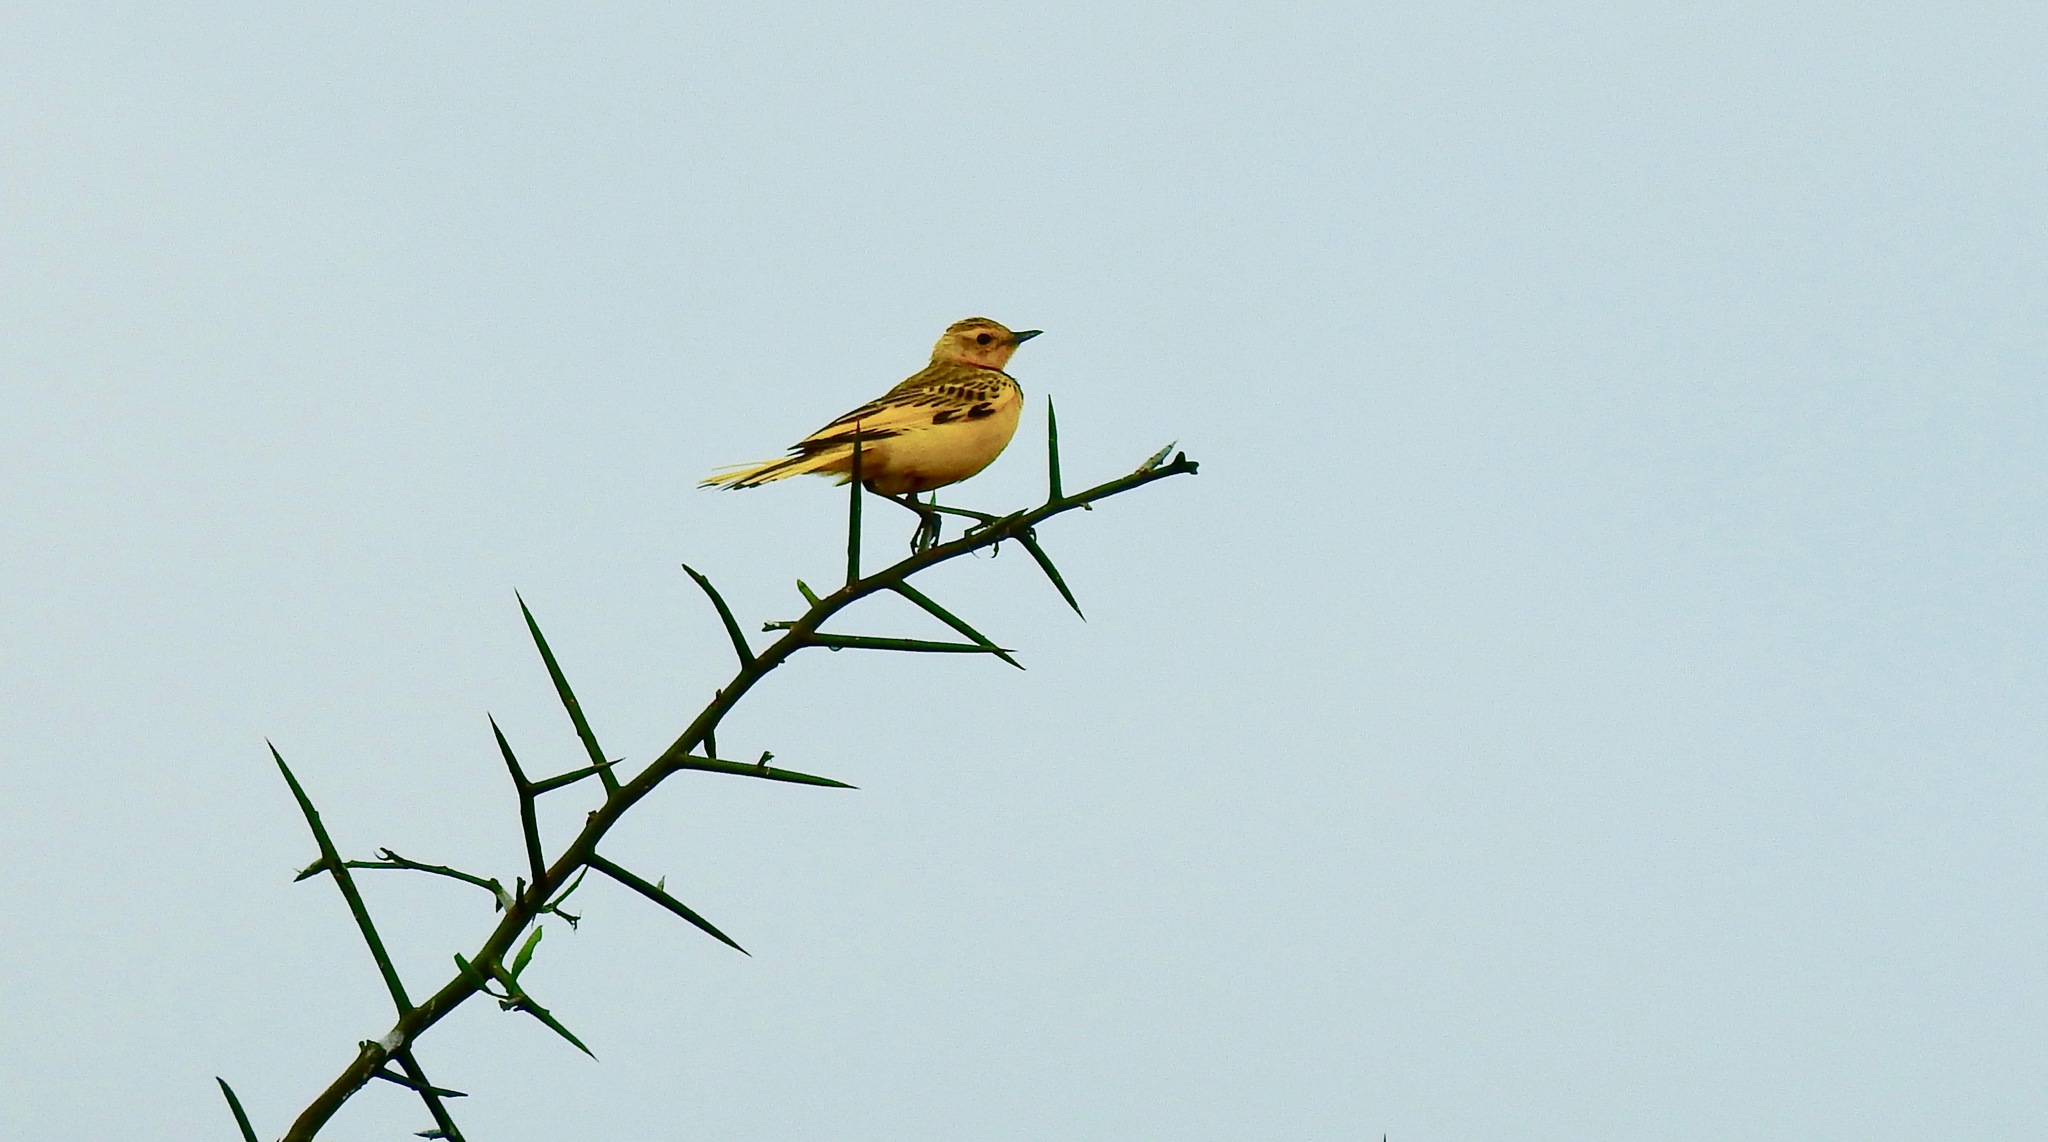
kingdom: Animalia
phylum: Chordata
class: Aves
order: Passeriformes
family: Motacillidae
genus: Tmetothylacus
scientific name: Tmetothylacus tenellus
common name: Golden pipit
